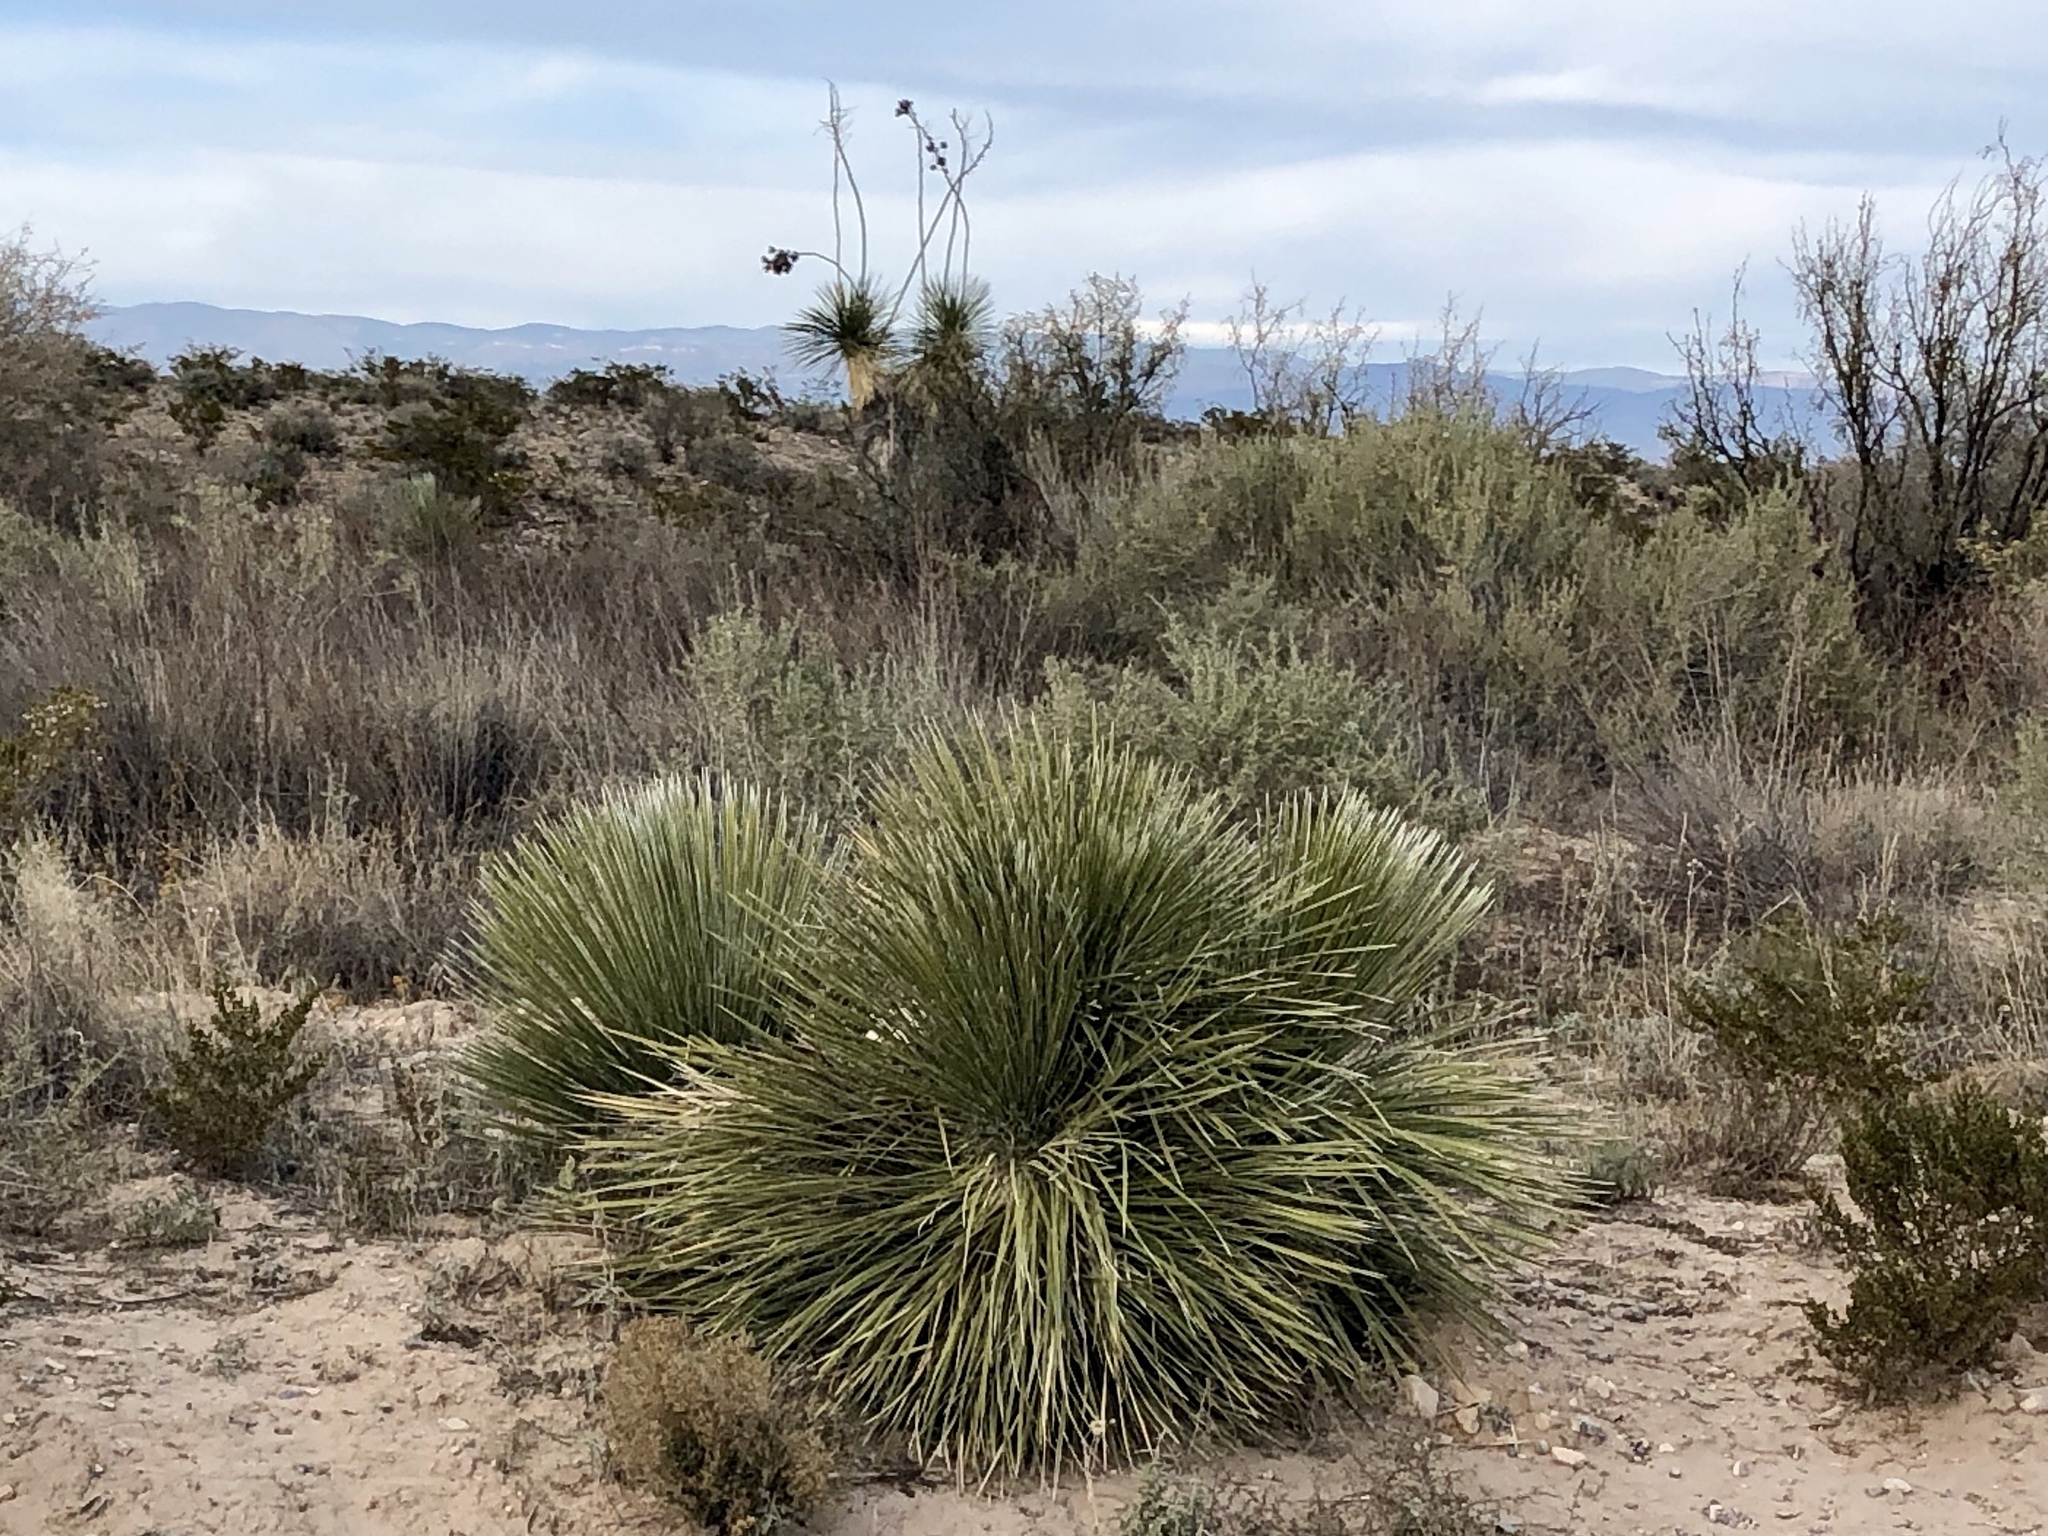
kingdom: Plantae
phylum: Tracheophyta
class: Liliopsida
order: Asparagales
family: Asparagaceae
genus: Yucca
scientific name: Yucca elata
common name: Palmella
